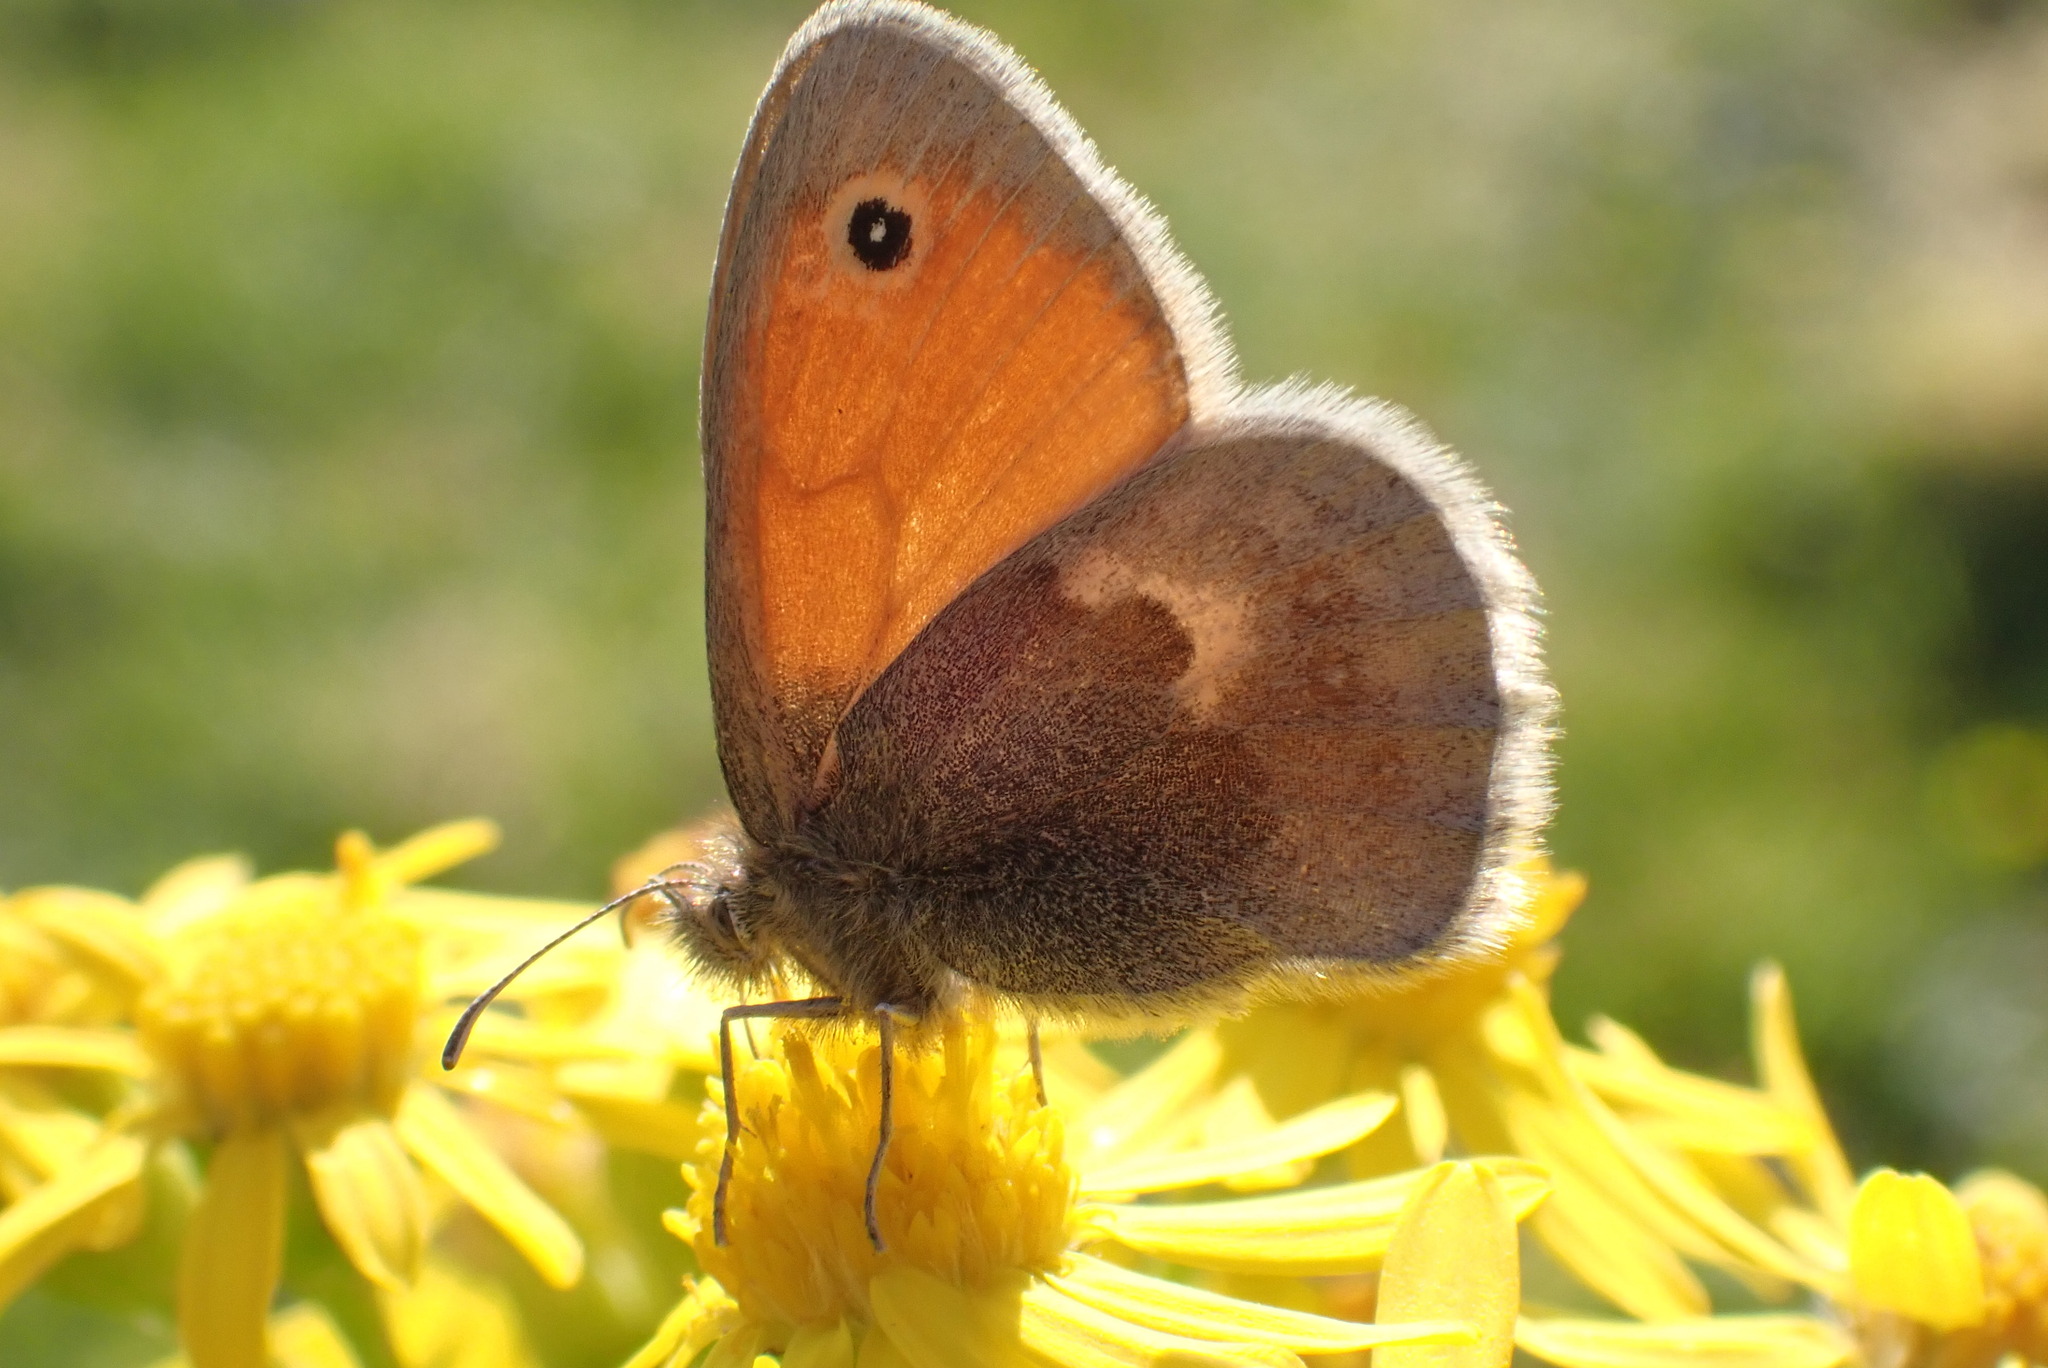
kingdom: Animalia
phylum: Arthropoda
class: Insecta
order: Lepidoptera
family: Nymphalidae
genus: Coenonympha
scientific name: Coenonympha pamphilus
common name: Small heath
